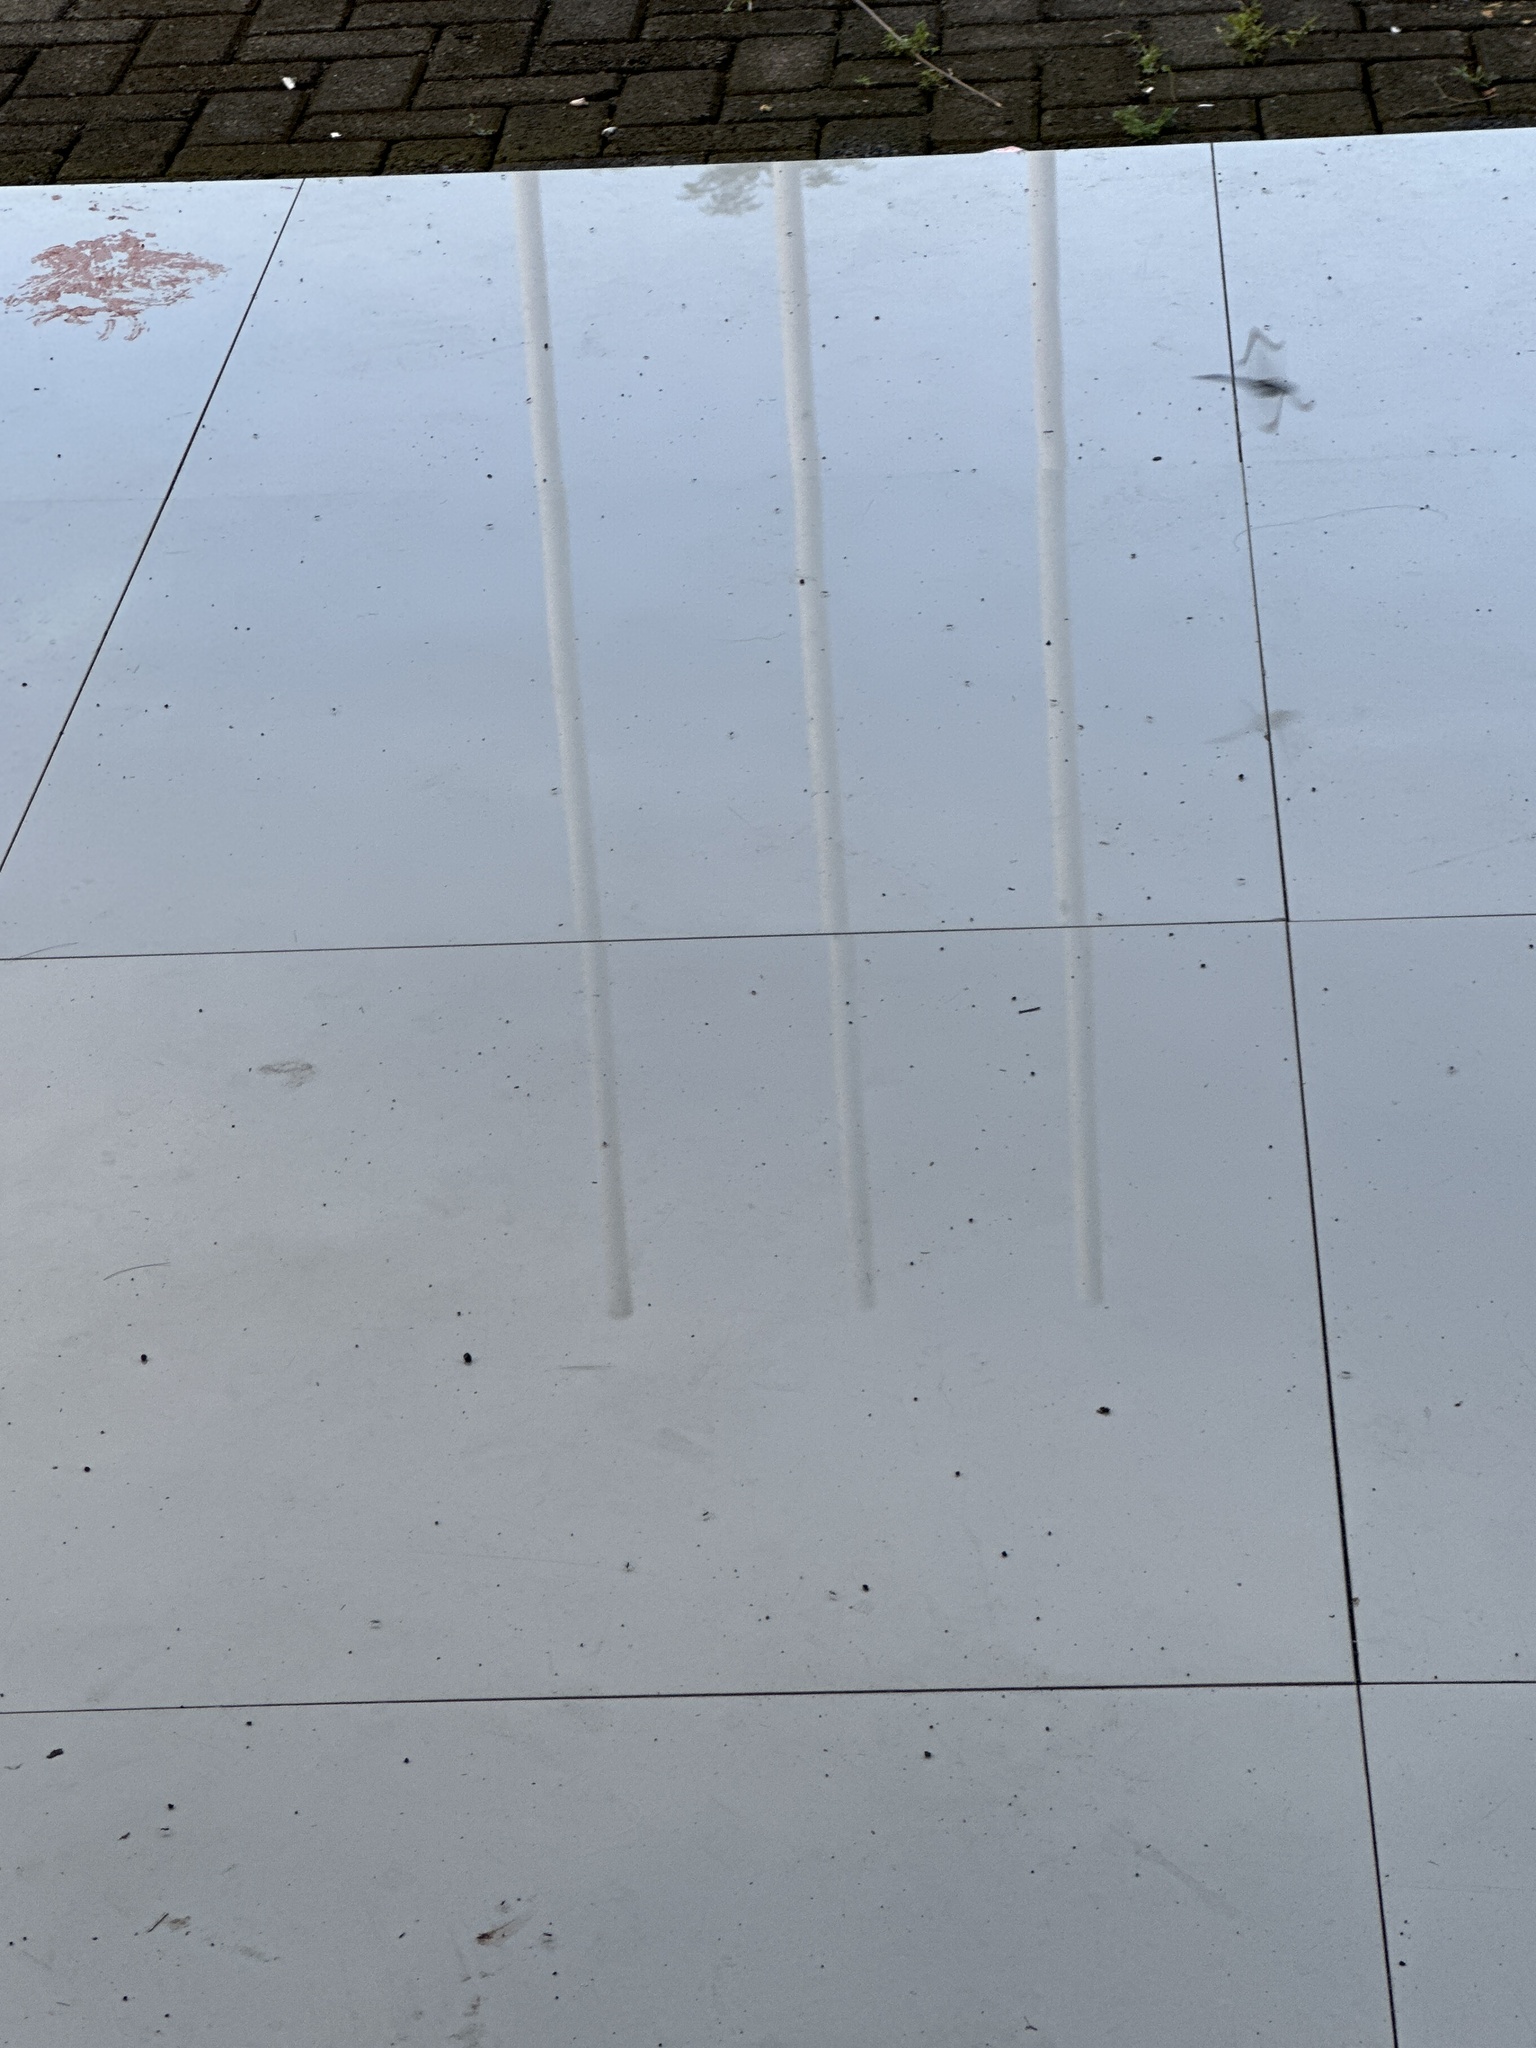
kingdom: Animalia
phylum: Arthropoda
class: Insecta
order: Odonata
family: Libellulidae
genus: Zyxomma
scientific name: Zyxomma obtusum
